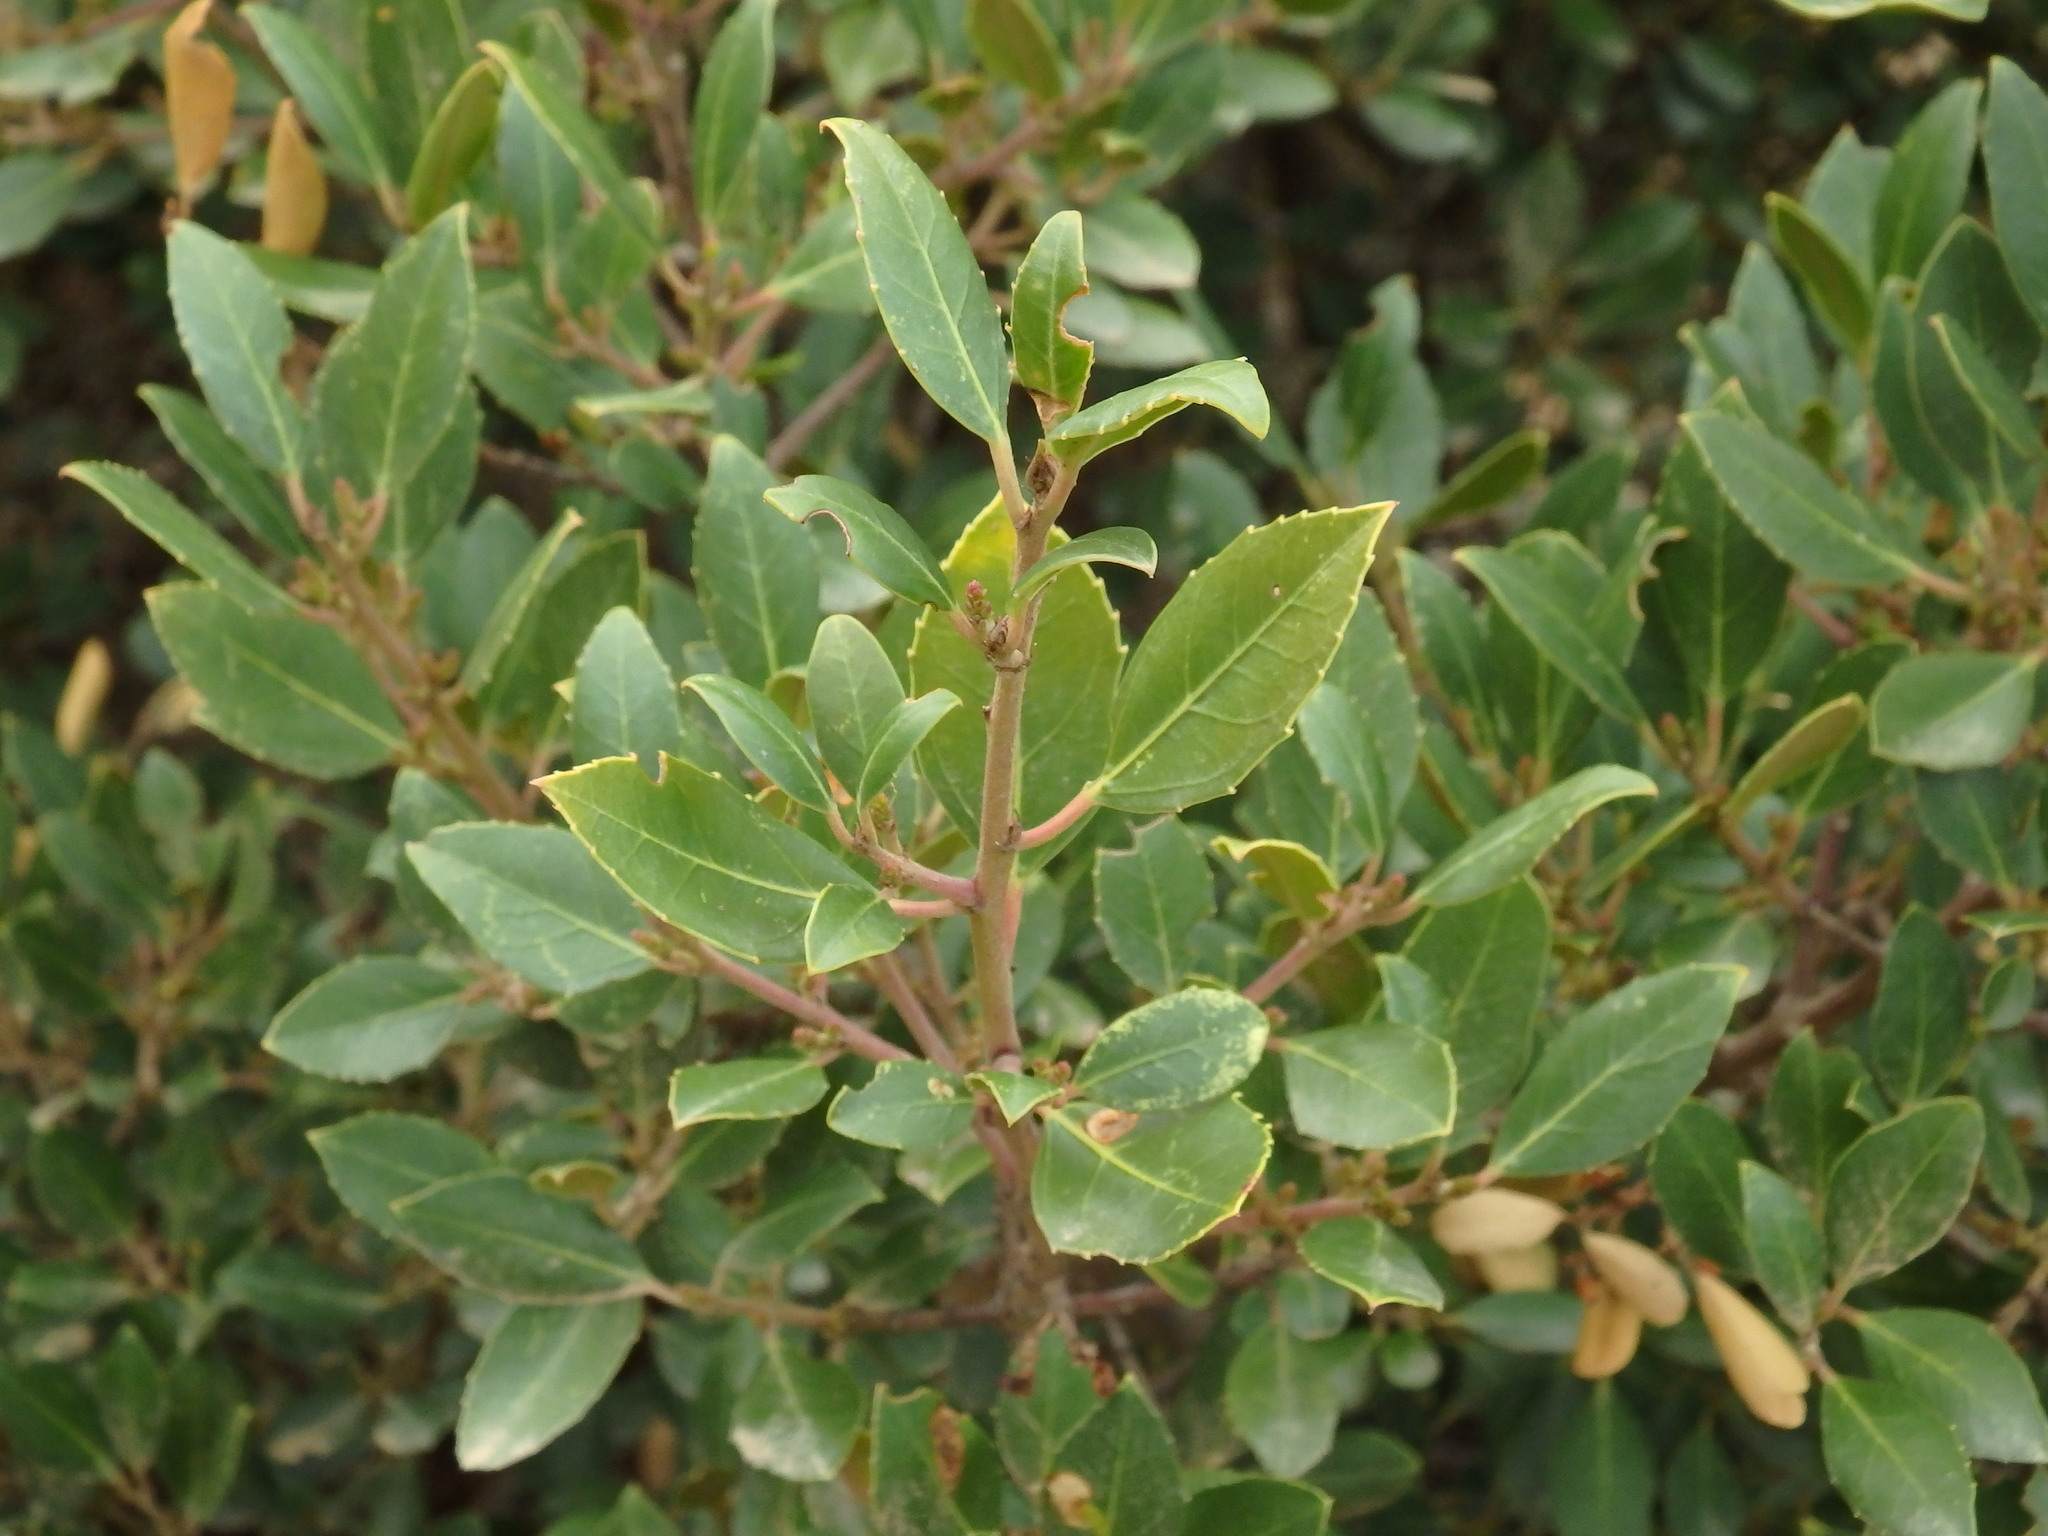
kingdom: Plantae
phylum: Tracheophyta
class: Magnoliopsida
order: Rosales
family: Rhamnaceae
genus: Rhamnus
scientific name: Rhamnus alaternus
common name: Mediterranean buckthorn
